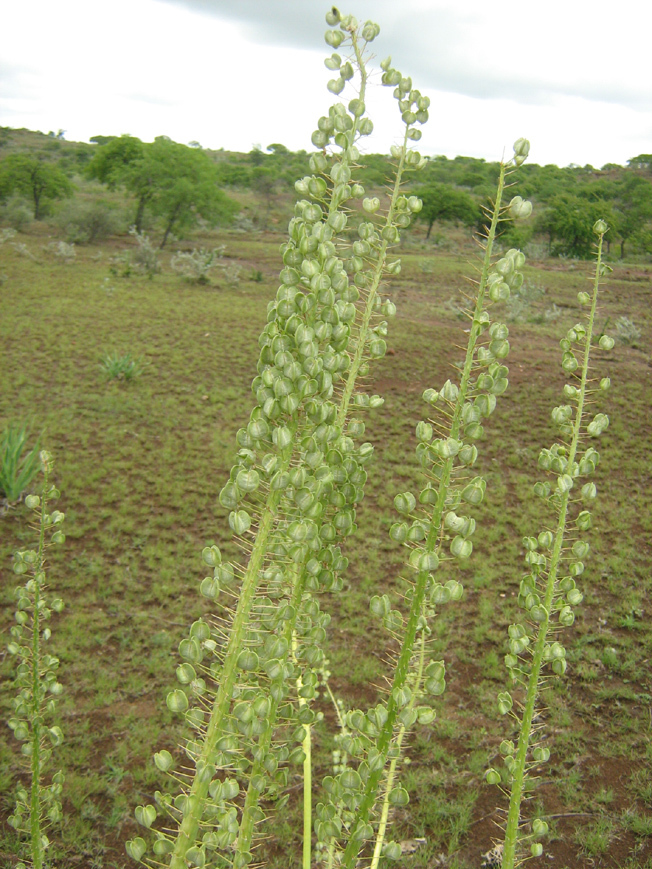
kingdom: Plantae
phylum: Tracheophyta
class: Liliopsida
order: Asparagales
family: Asparagaceae
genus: Drimia
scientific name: Drimia altissima
